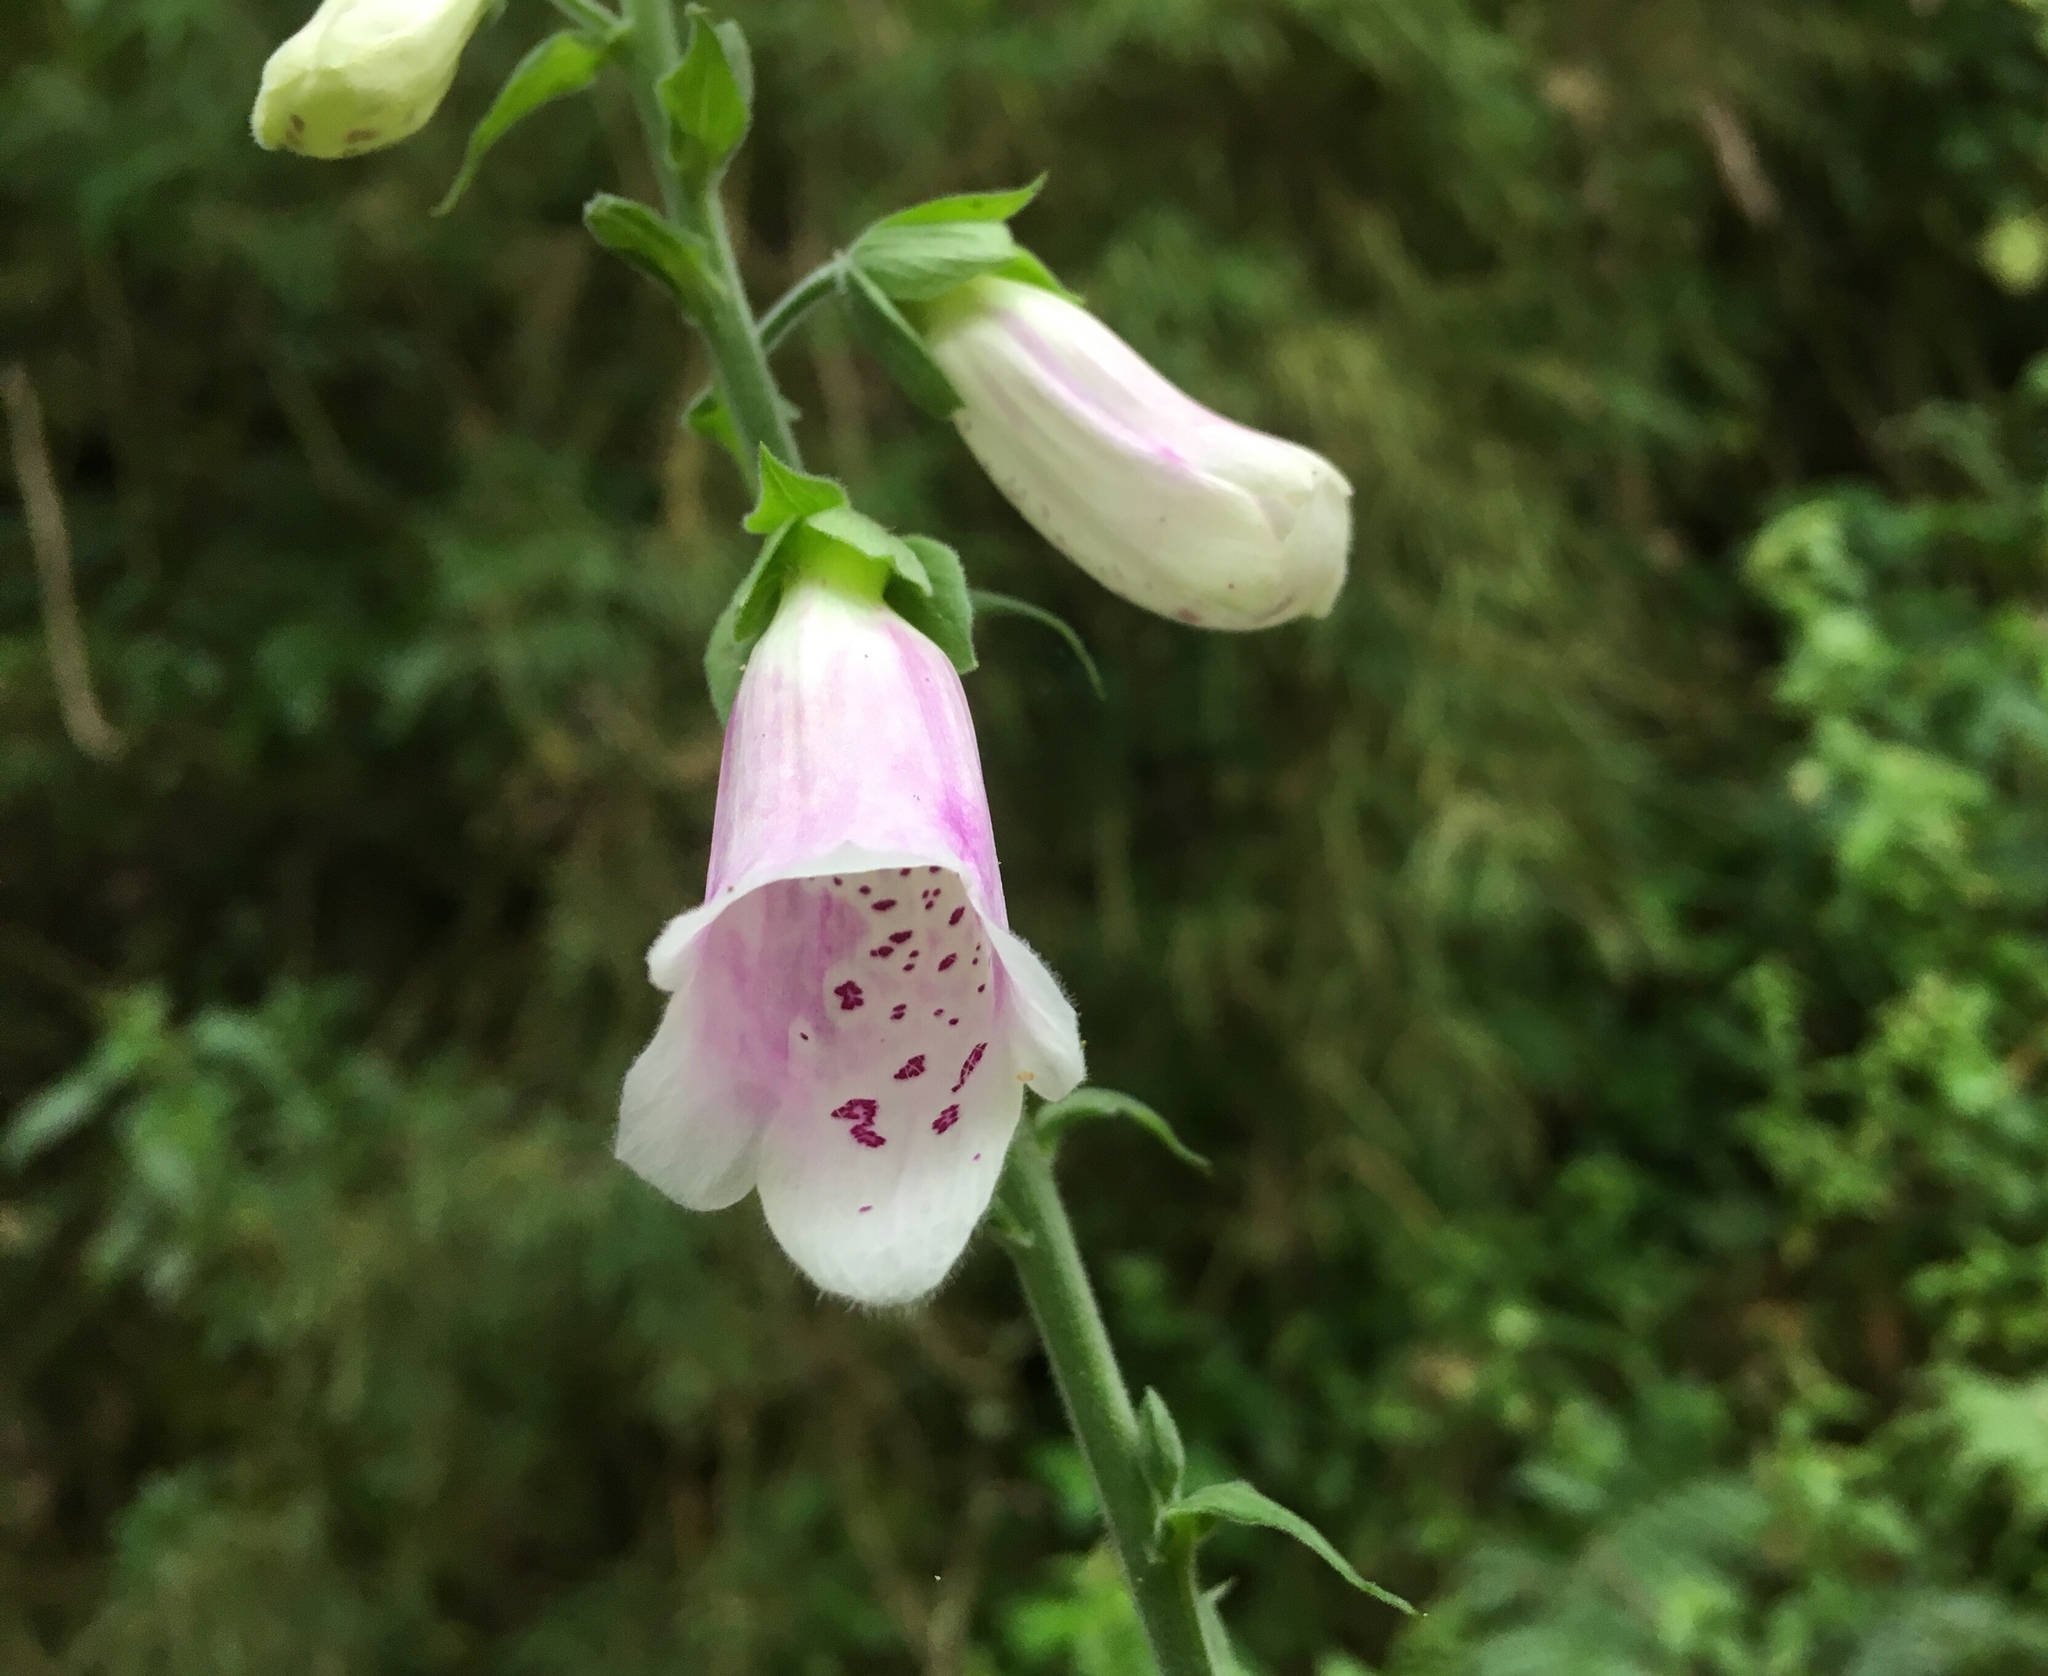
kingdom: Plantae
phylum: Tracheophyta
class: Magnoliopsida
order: Lamiales
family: Plantaginaceae
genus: Digitalis
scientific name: Digitalis purpurea
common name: Foxglove
